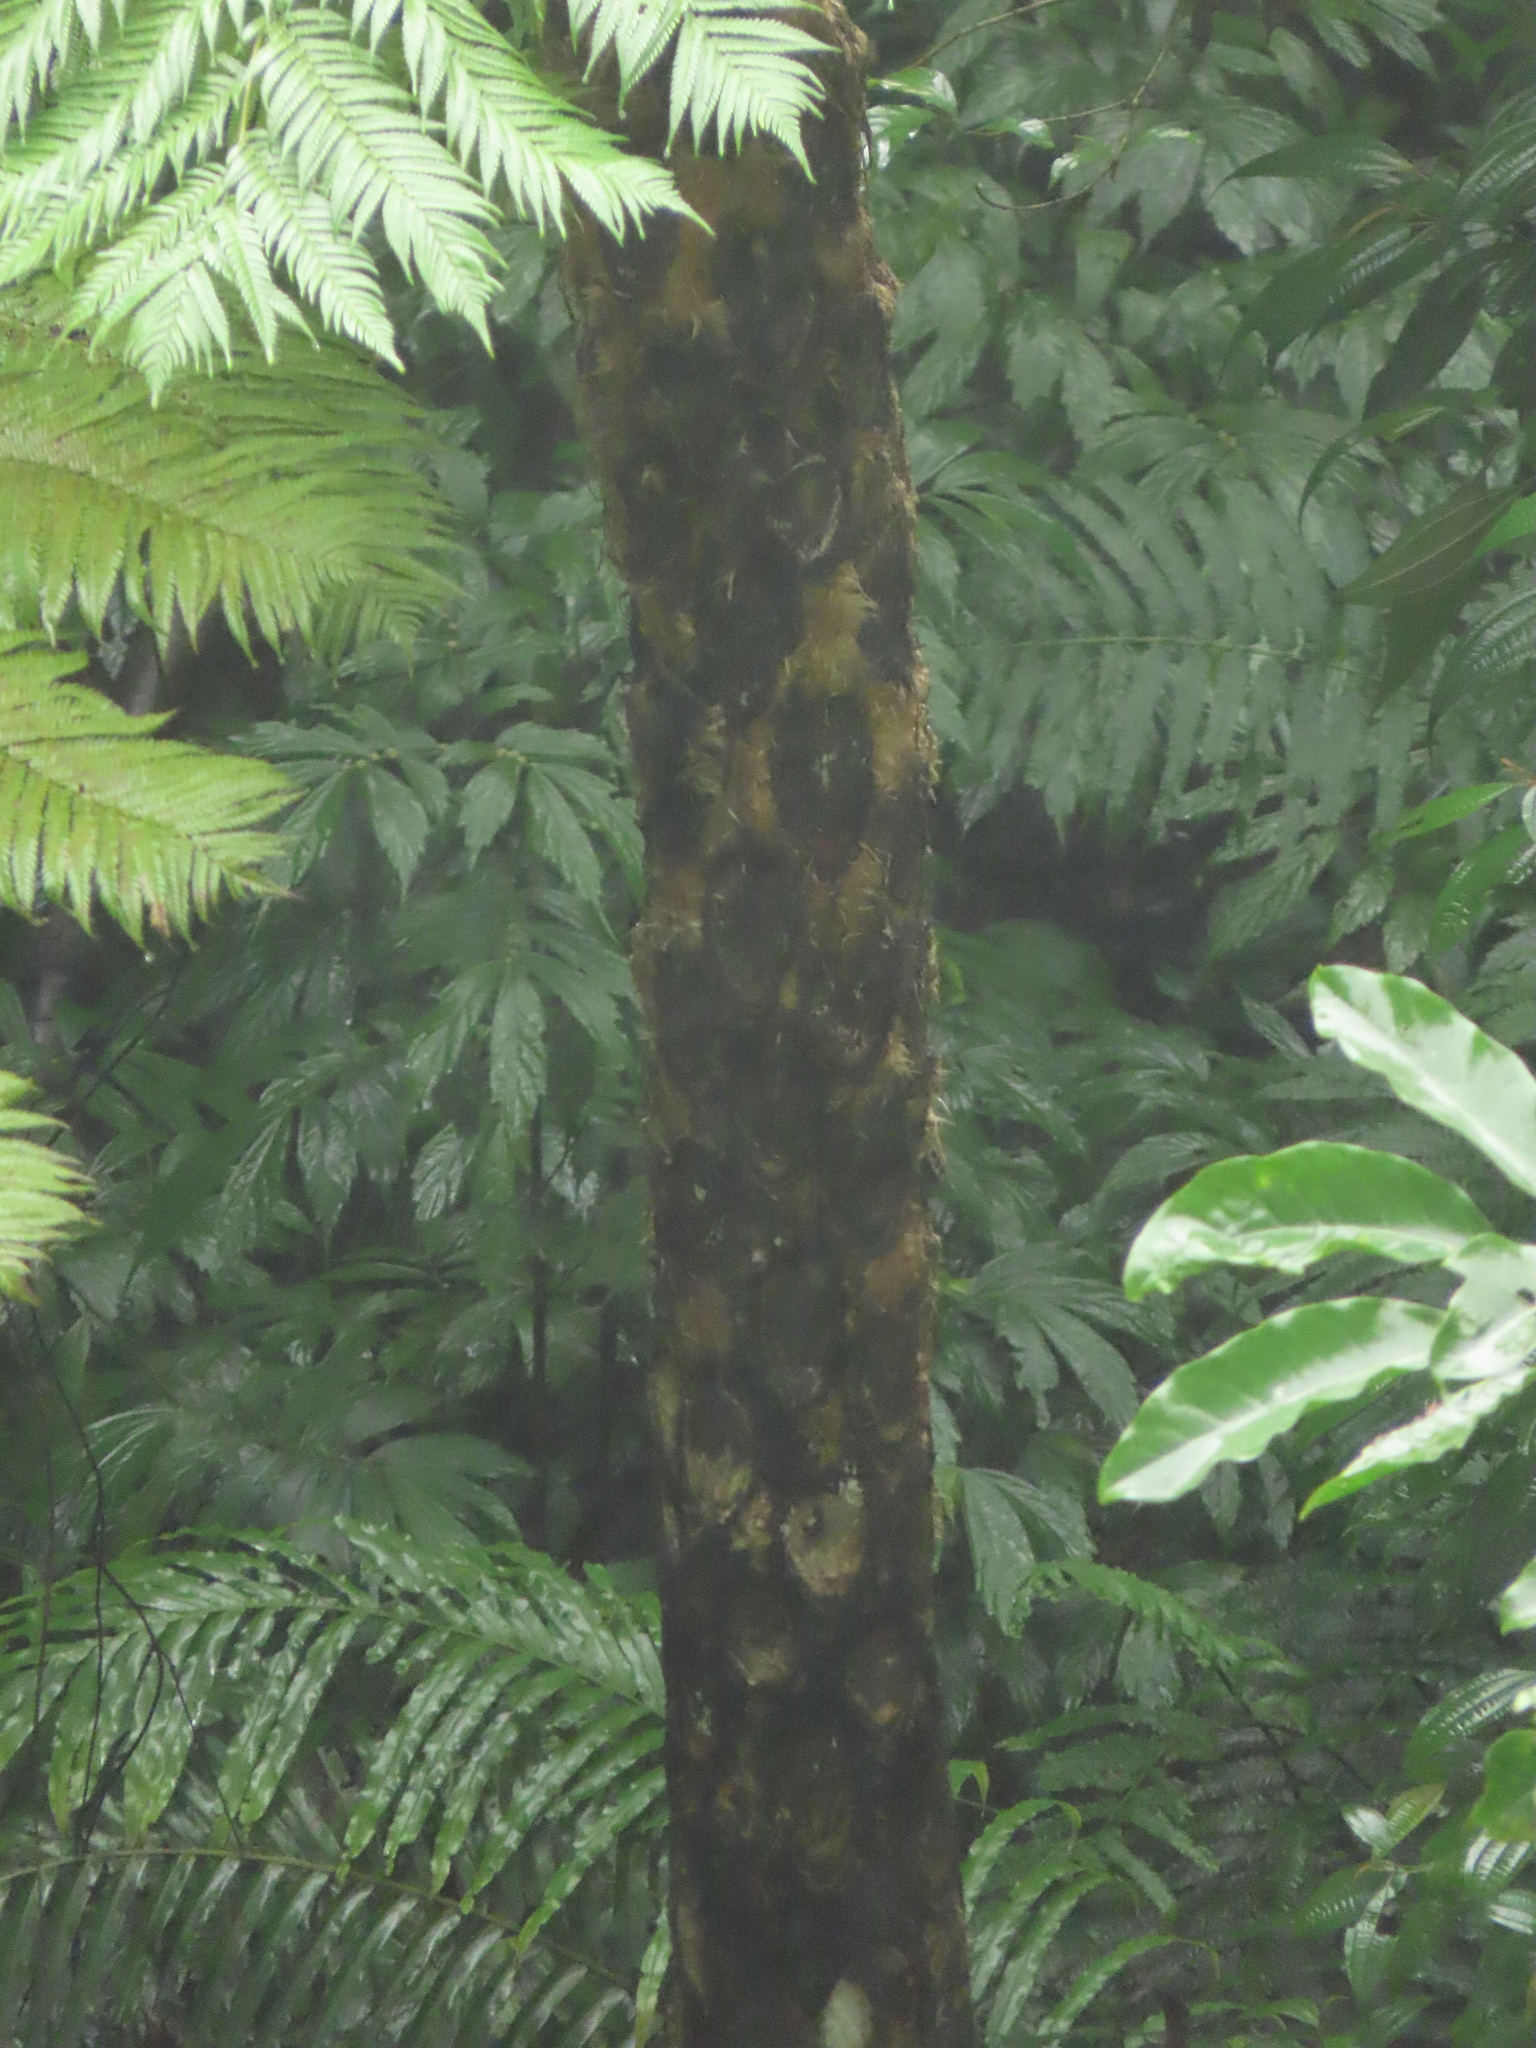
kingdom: Plantae
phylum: Tracheophyta
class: Polypodiopsida
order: Cyatheales
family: Cyatheaceae
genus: Alsophila
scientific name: Alsophila lepifera
